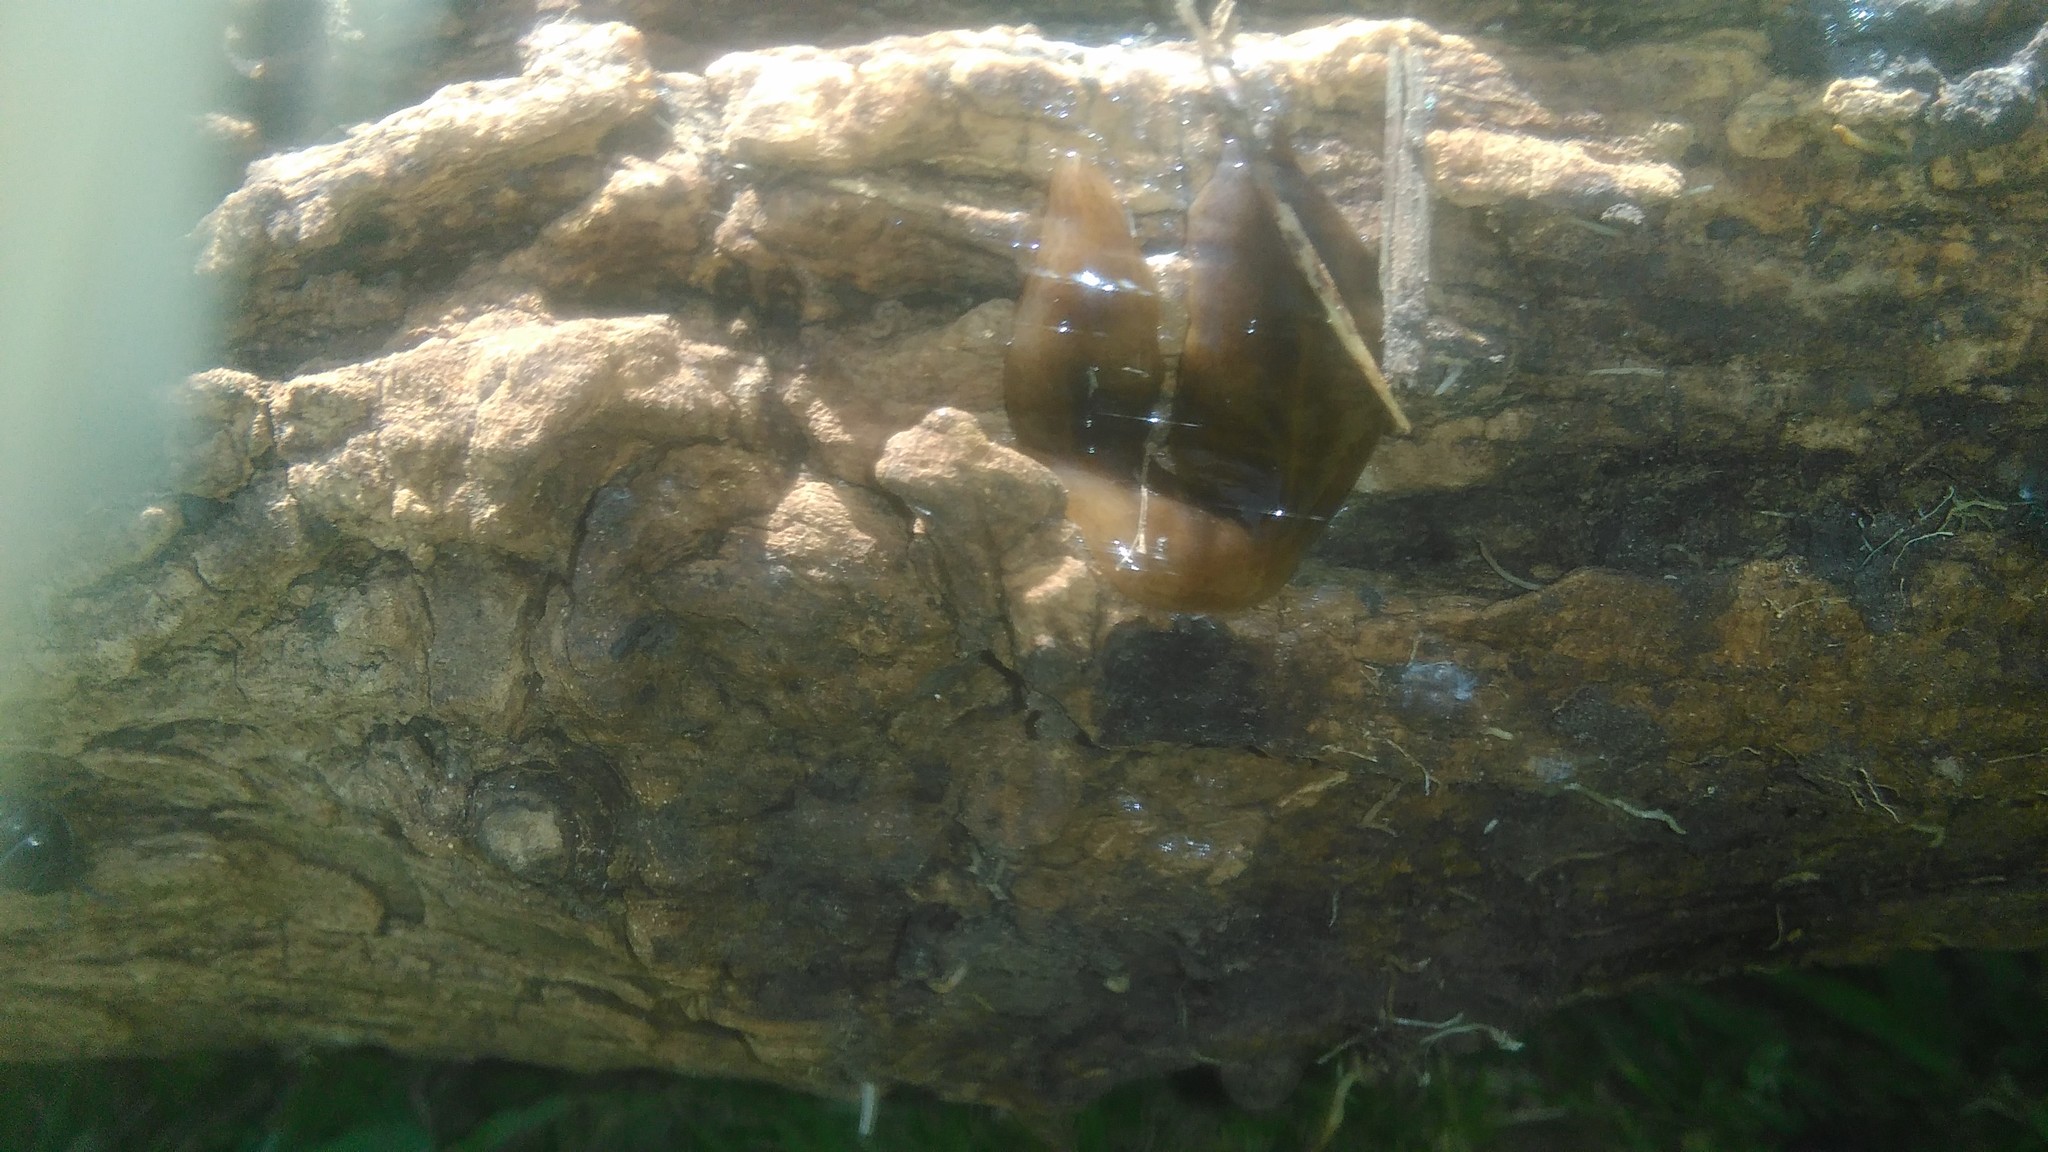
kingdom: Animalia
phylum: Platyhelminthes
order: Tricladida
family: Geoplanidae
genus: Obama
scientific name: Obama nungara
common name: Obama flatworm
